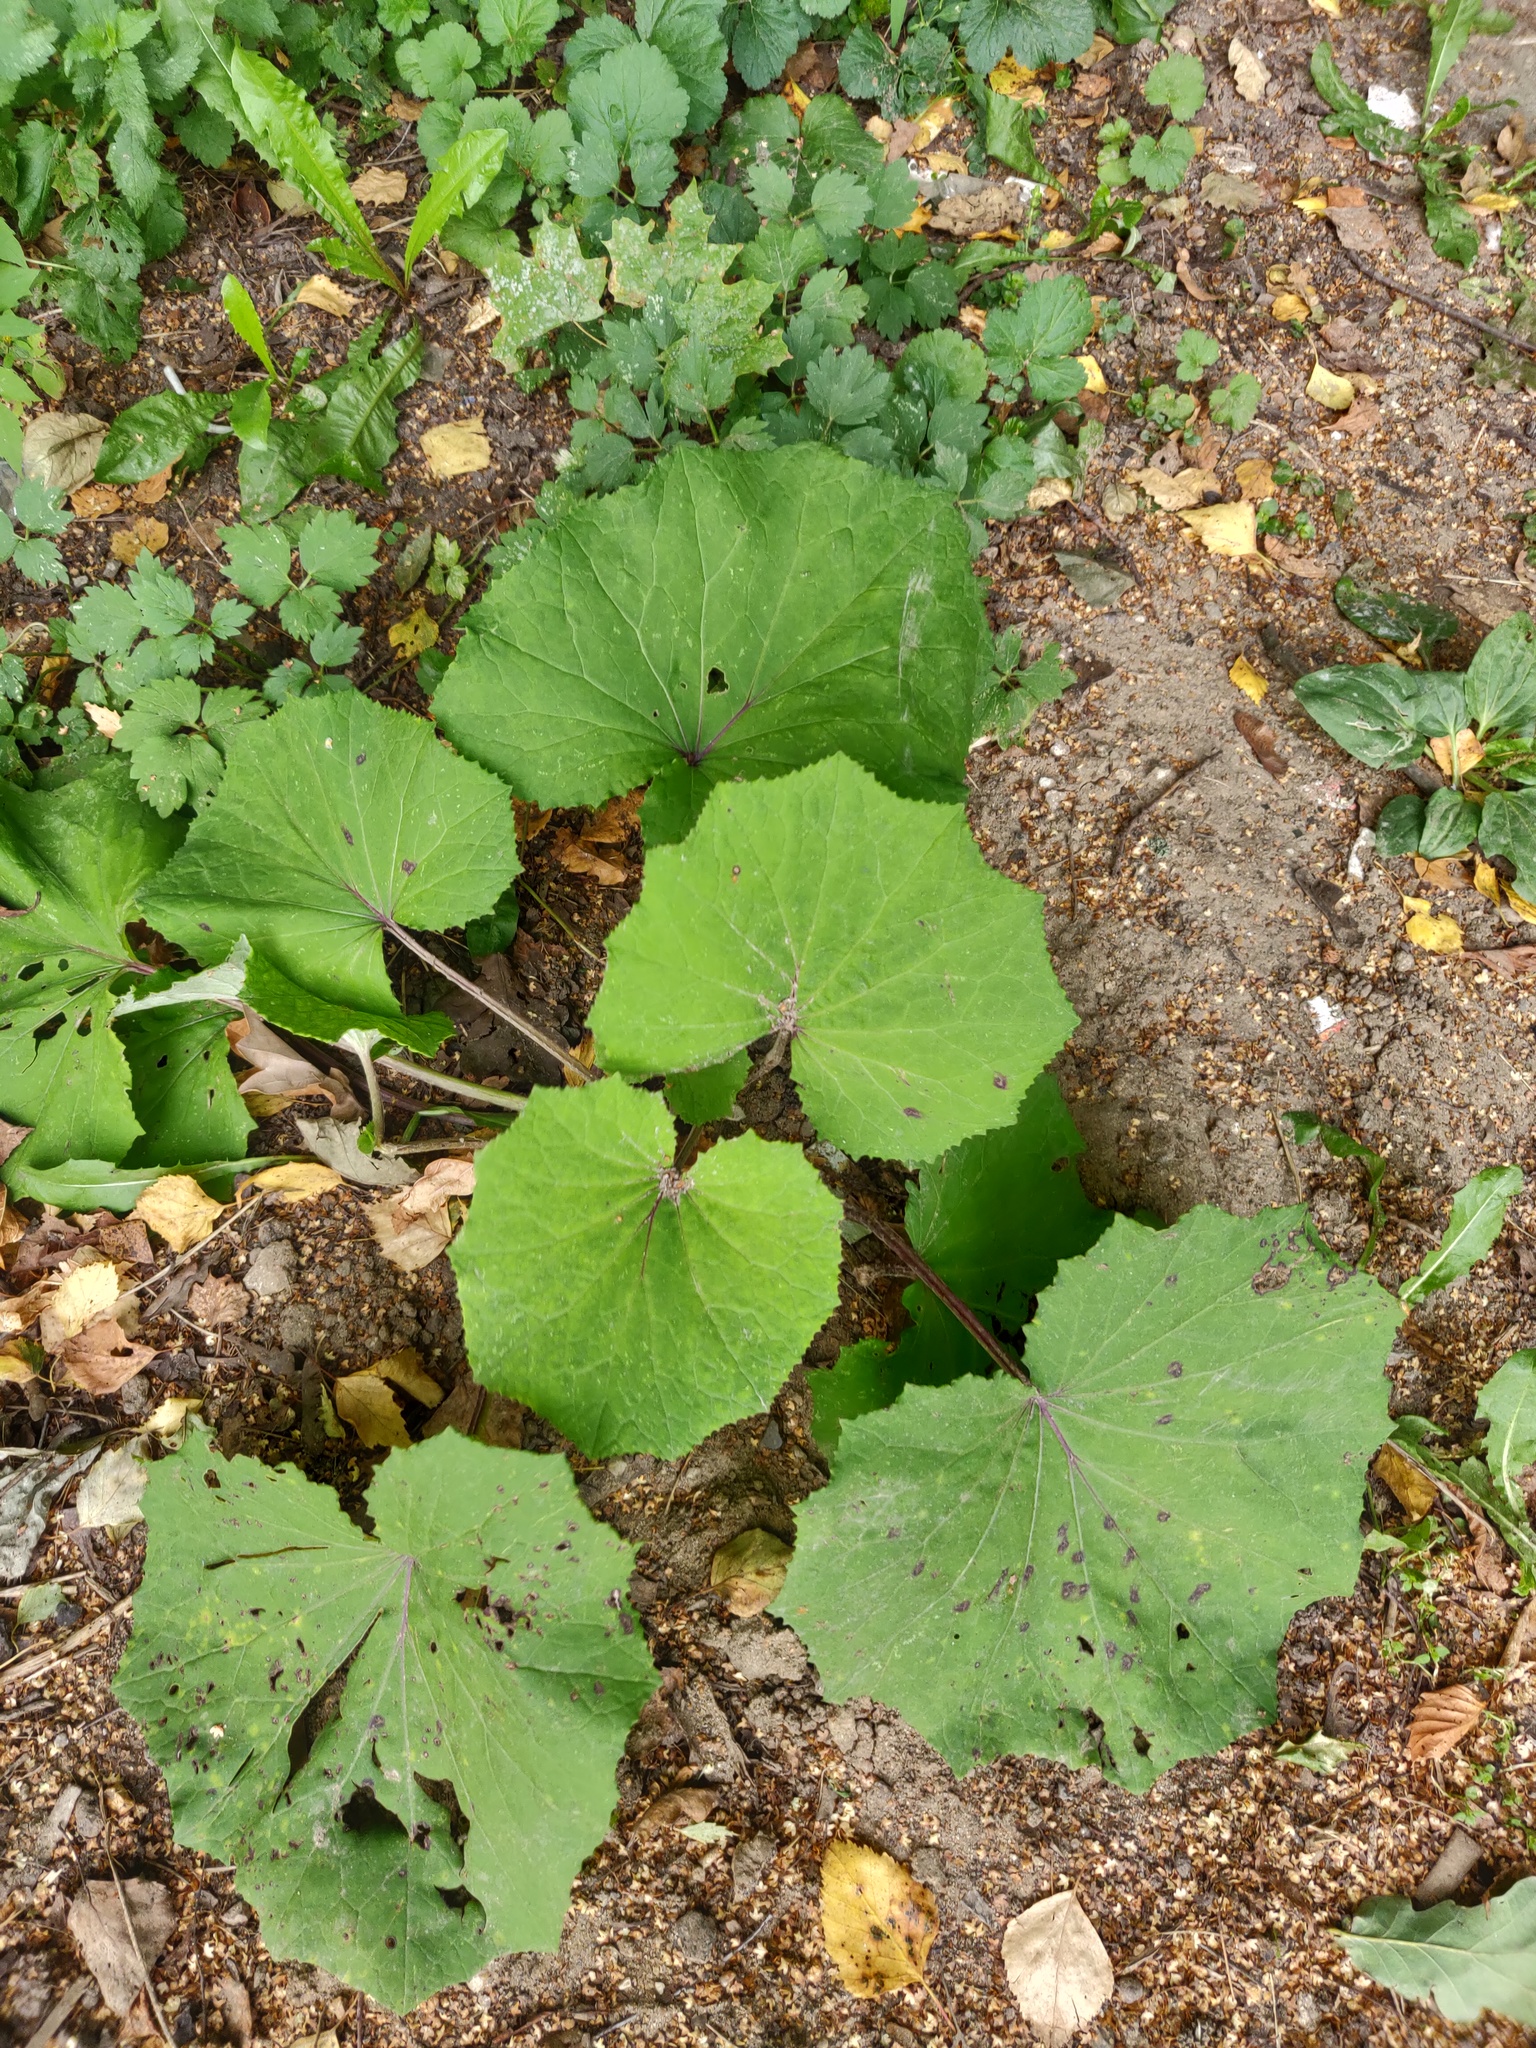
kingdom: Plantae
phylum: Tracheophyta
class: Magnoliopsida
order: Asterales
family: Asteraceae
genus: Tussilago
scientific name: Tussilago farfara
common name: Coltsfoot
